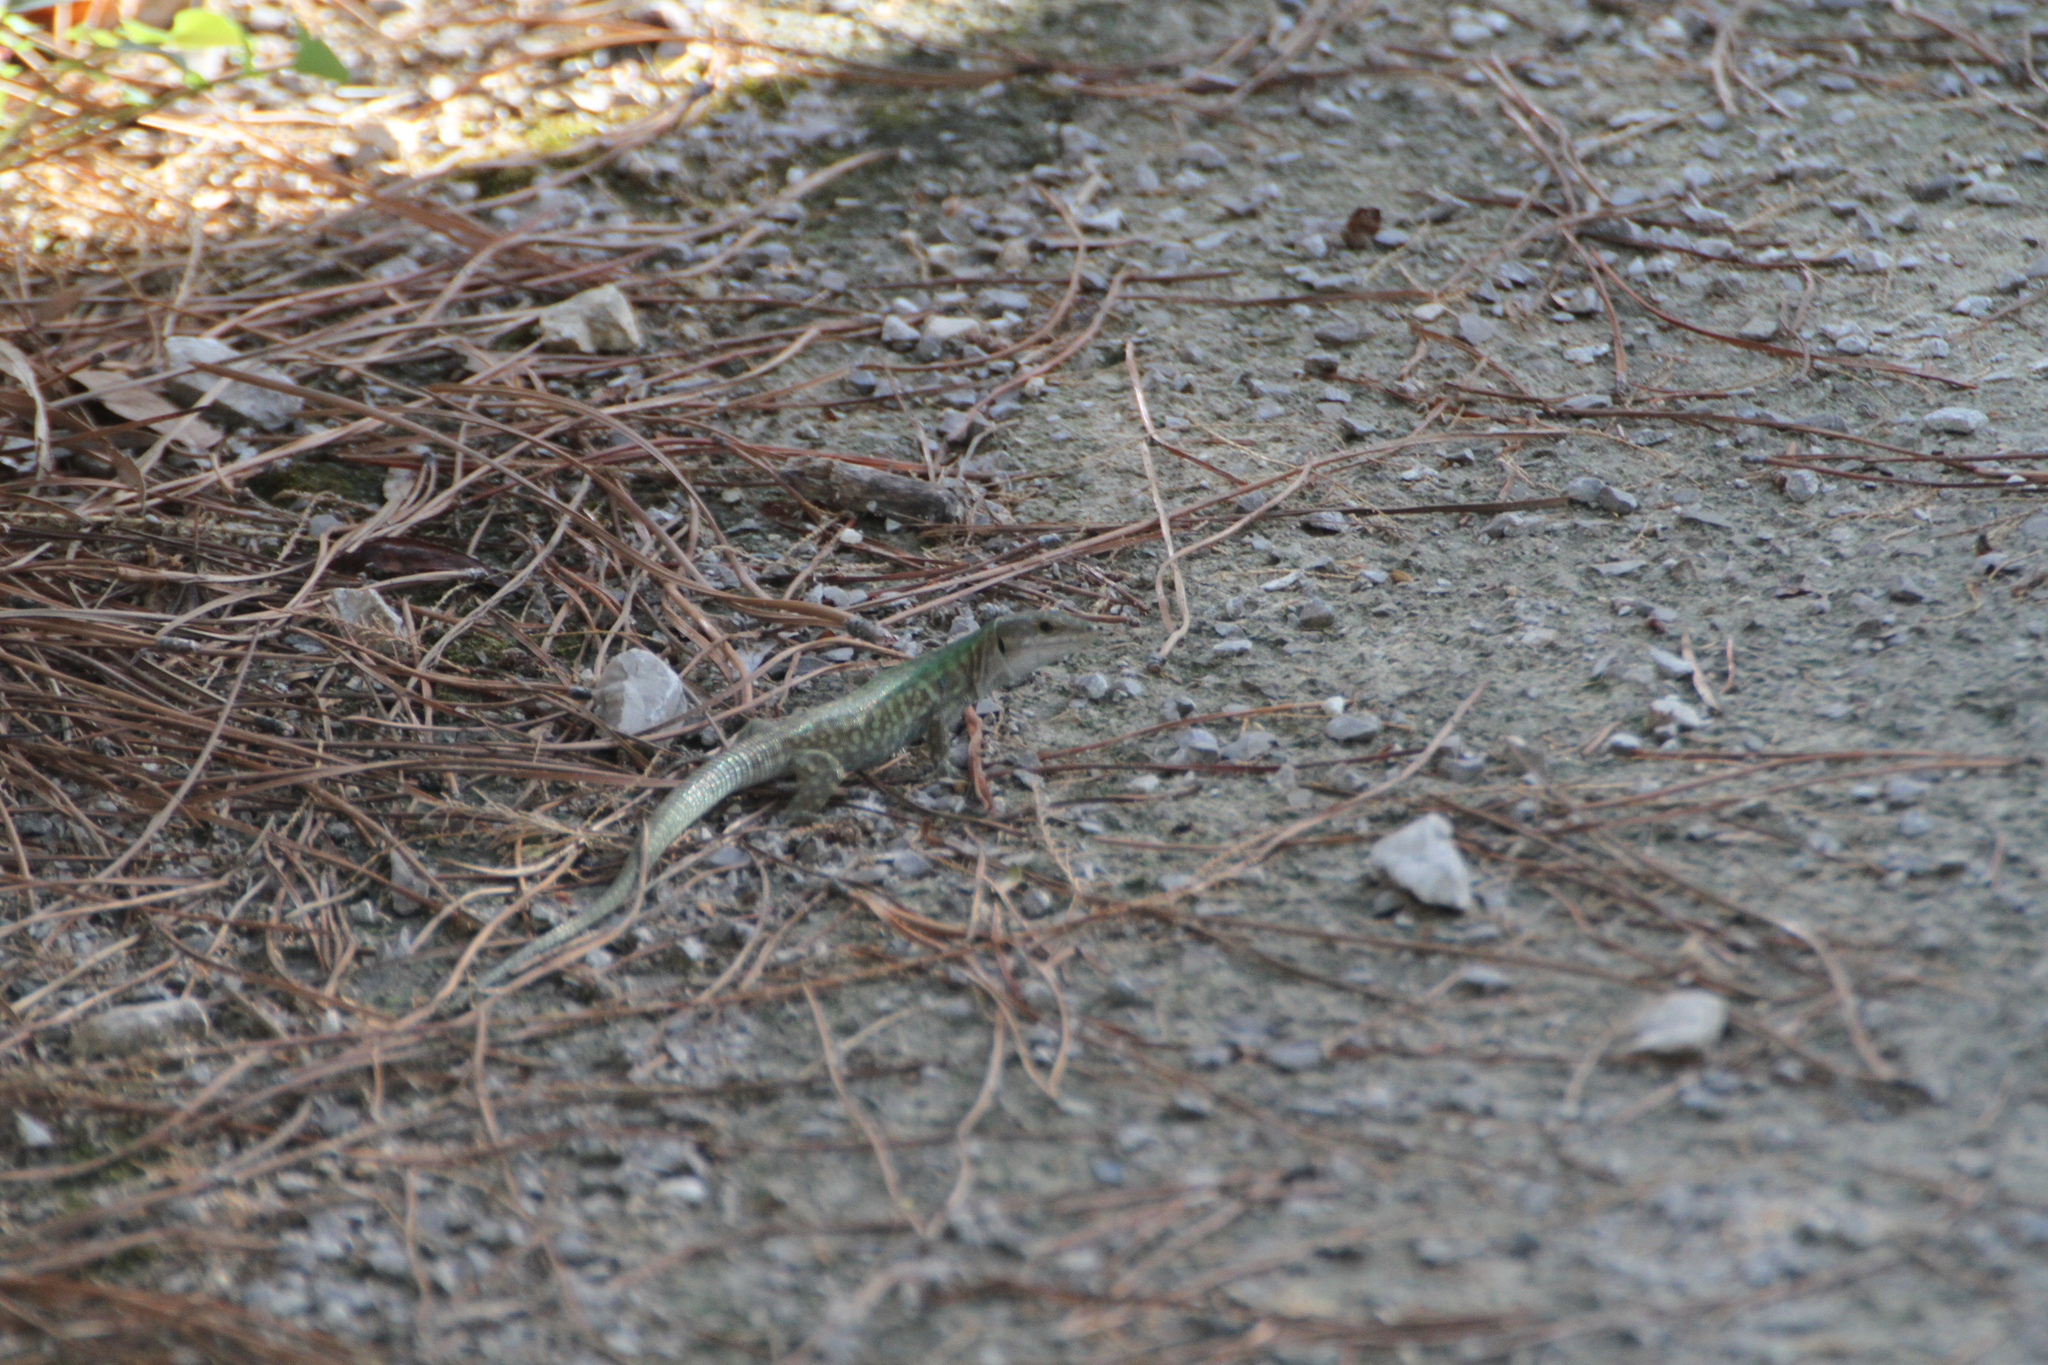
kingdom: Animalia
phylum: Chordata
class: Squamata
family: Lacertidae
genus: Podarcis
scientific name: Podarcis siculus
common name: Italian wall lizard
